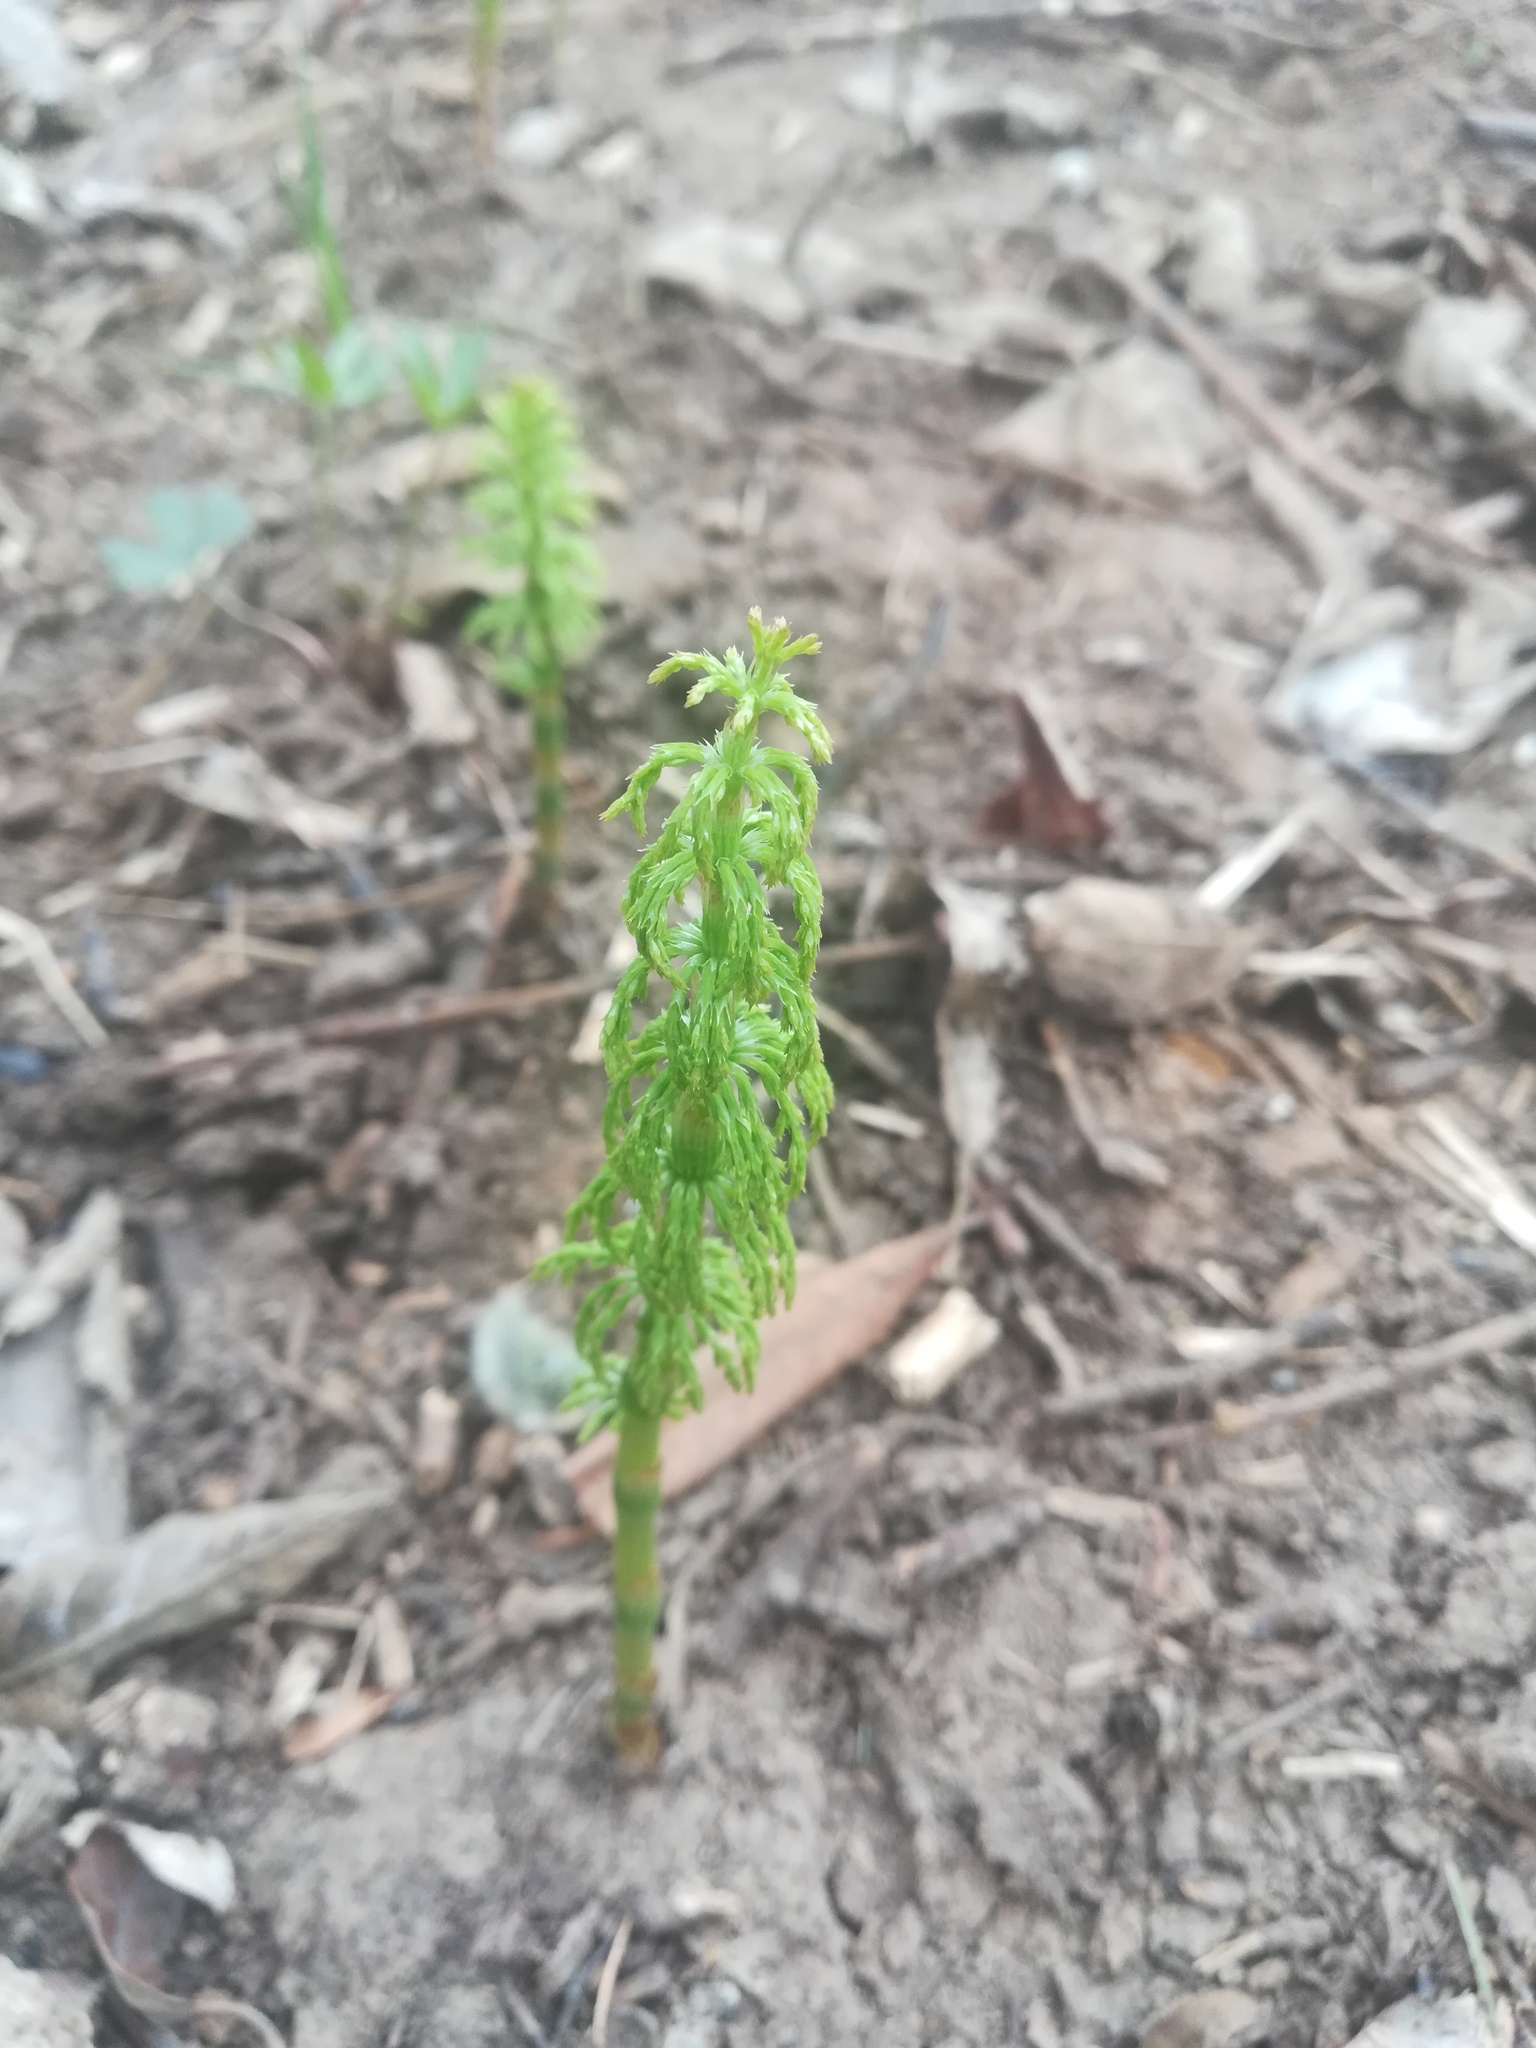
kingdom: Plantae
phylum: Tracheophyta
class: Polypodiopsida
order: Equisetales
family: Equisetaceae
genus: Equisetum
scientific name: Equisetum sylvaticum
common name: Wood horsetail
